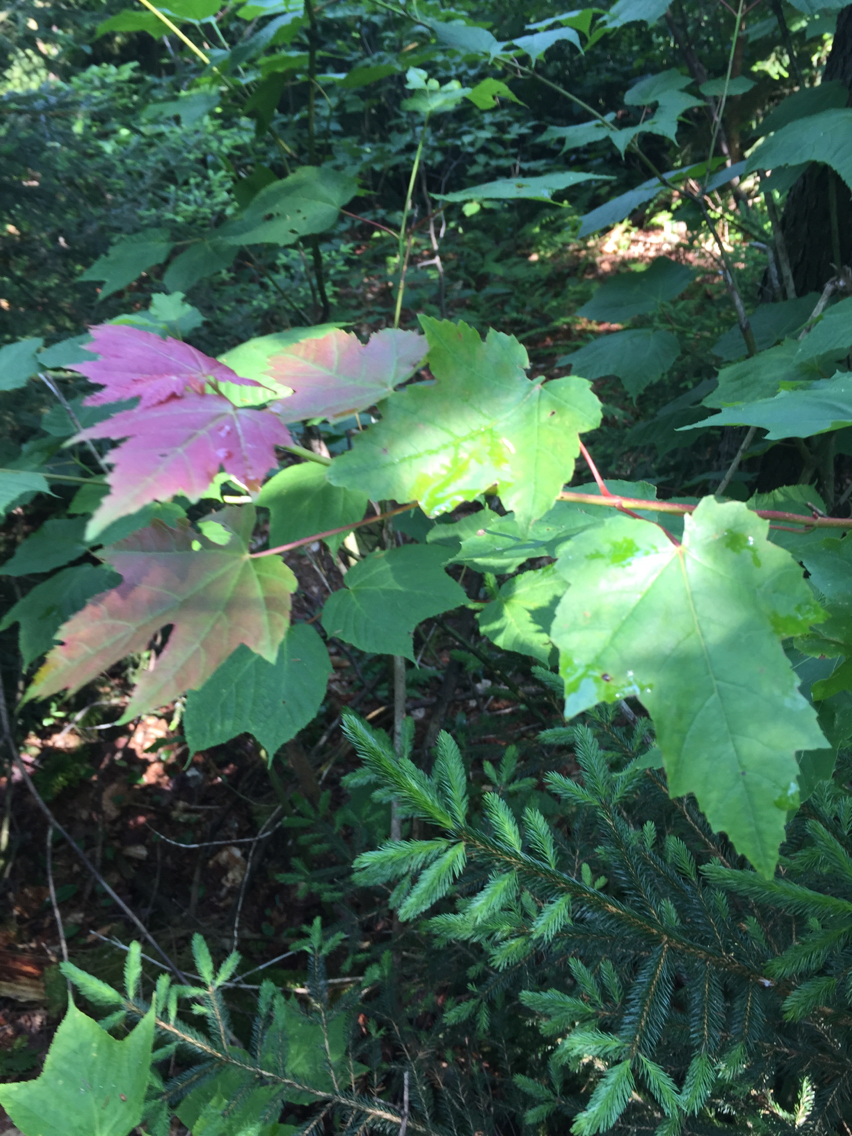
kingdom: Plantae
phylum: Tracheophyta
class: Magnoliopsida
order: Sapindales
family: Sapindaceae
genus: Acer
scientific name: Acer rubrum
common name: Red maple
